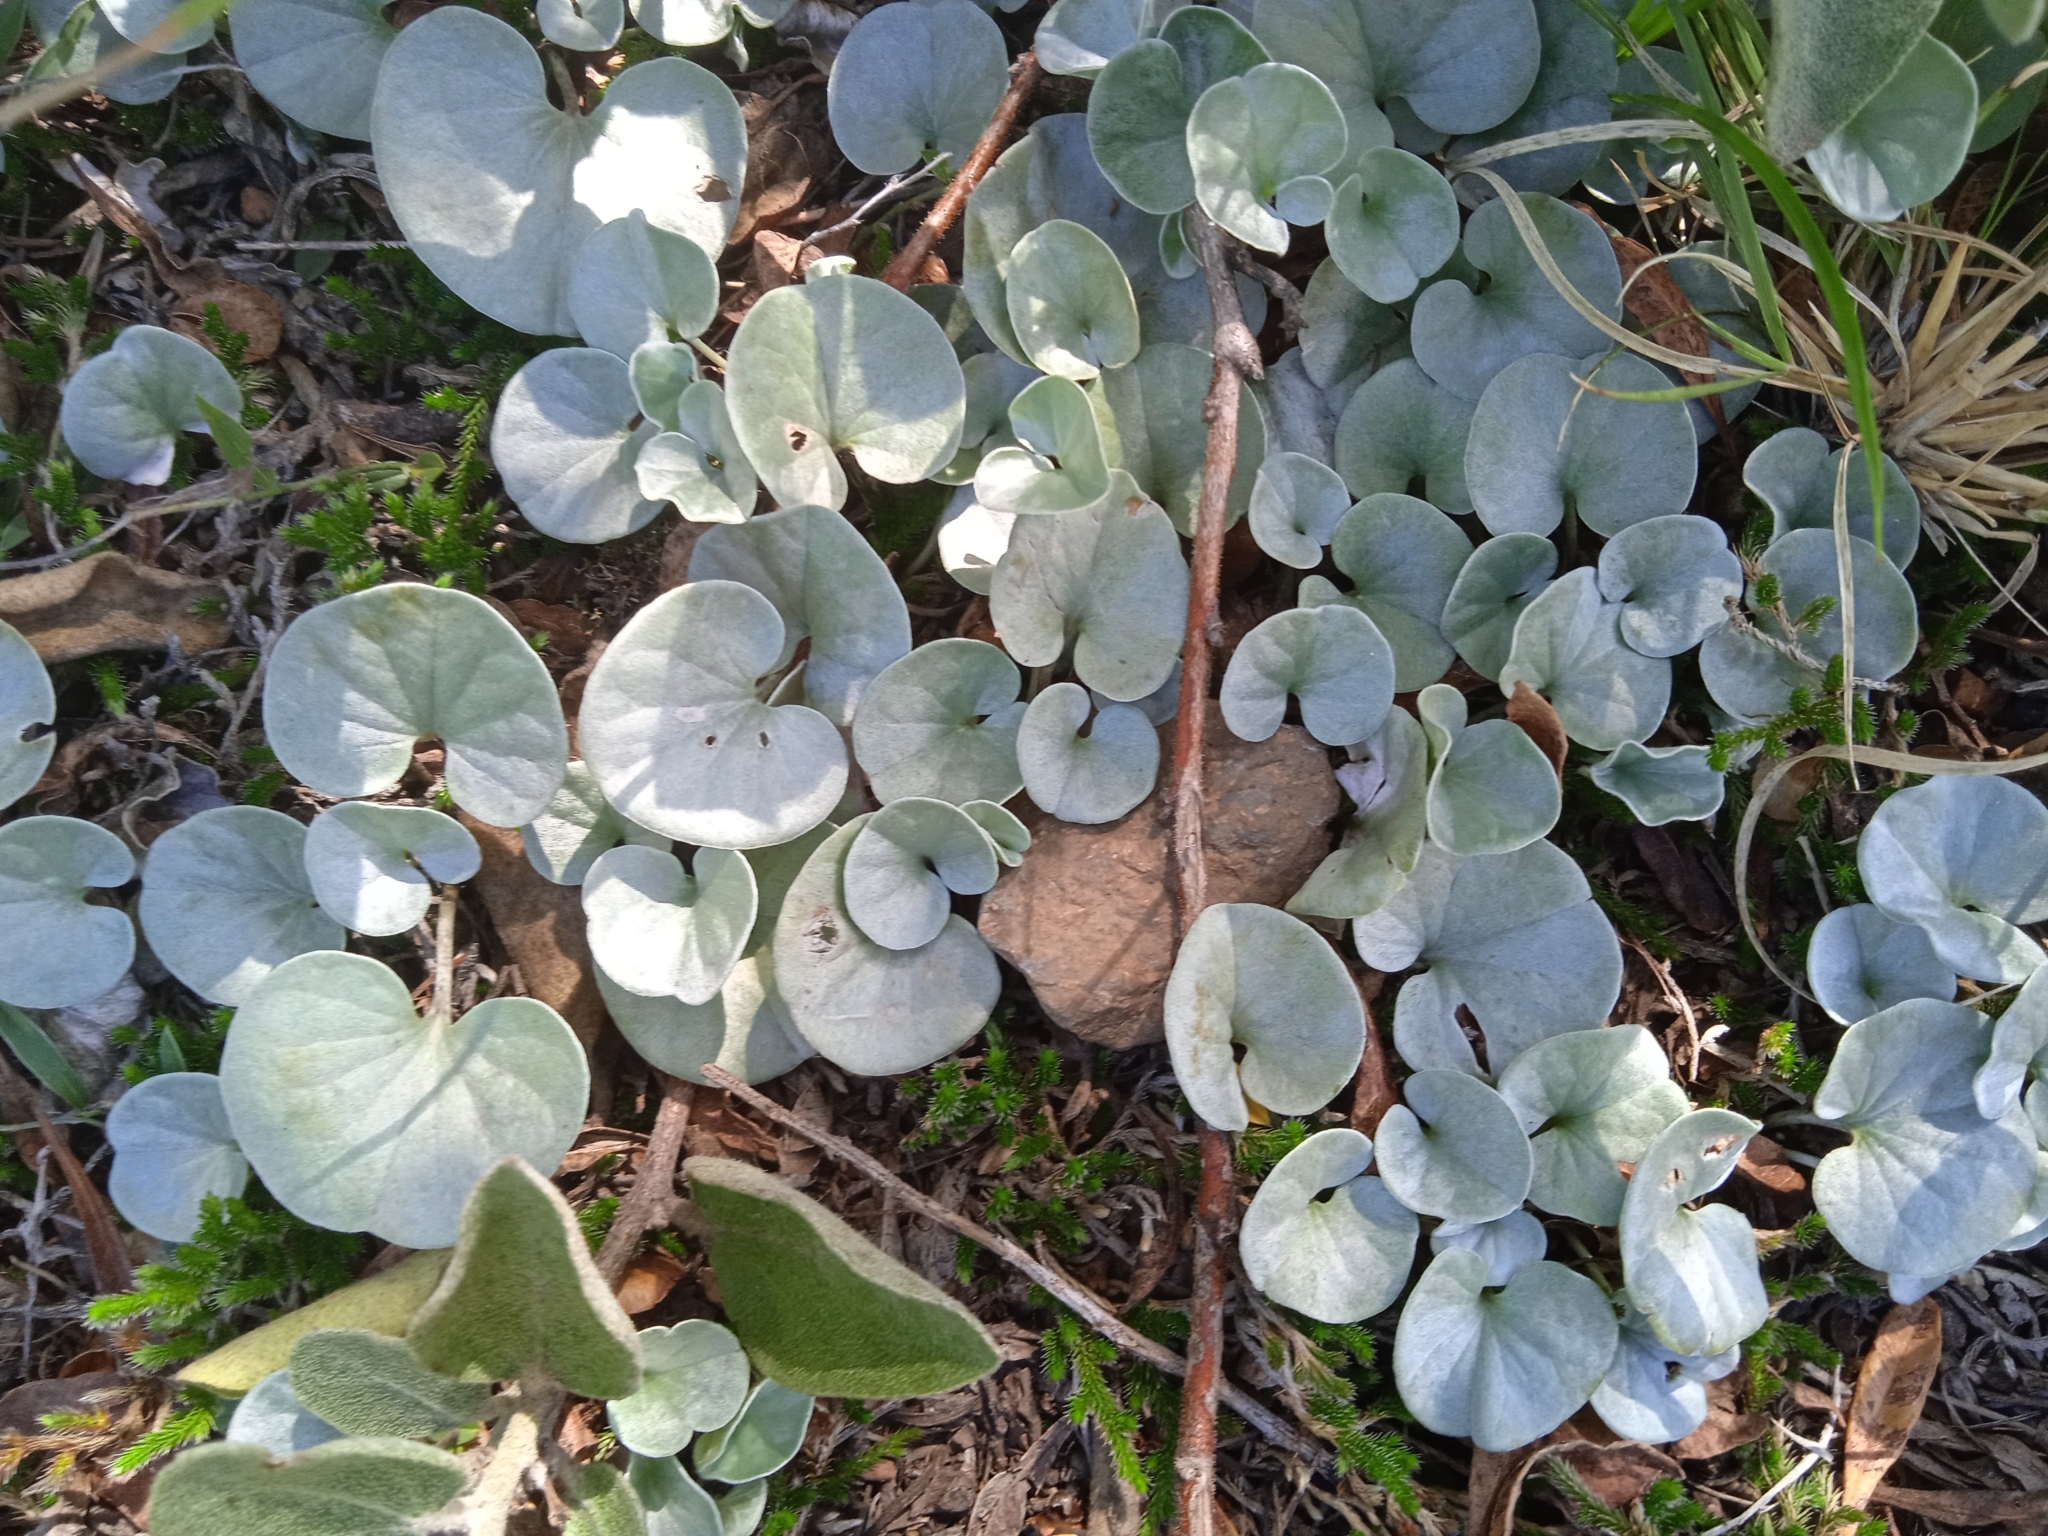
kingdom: Plantae
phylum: Tracheophyta
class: Magnoliopsida
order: Solanales
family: Convolvulaceae
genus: Dichondra
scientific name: Dichondra argentea
